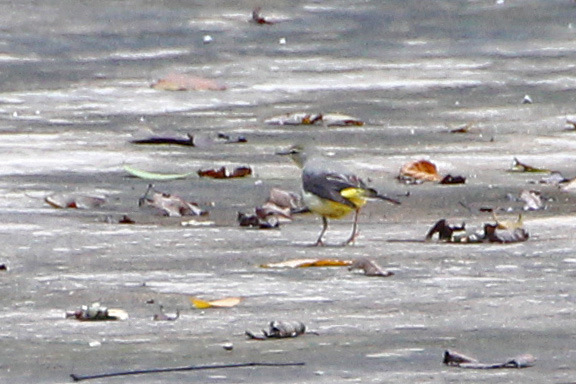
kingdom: Animalia
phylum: Chordata
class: Aves
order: Passeriformes
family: Motacillidae
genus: Motacilla
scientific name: Motacilla cinerea
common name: Grey wagtail
